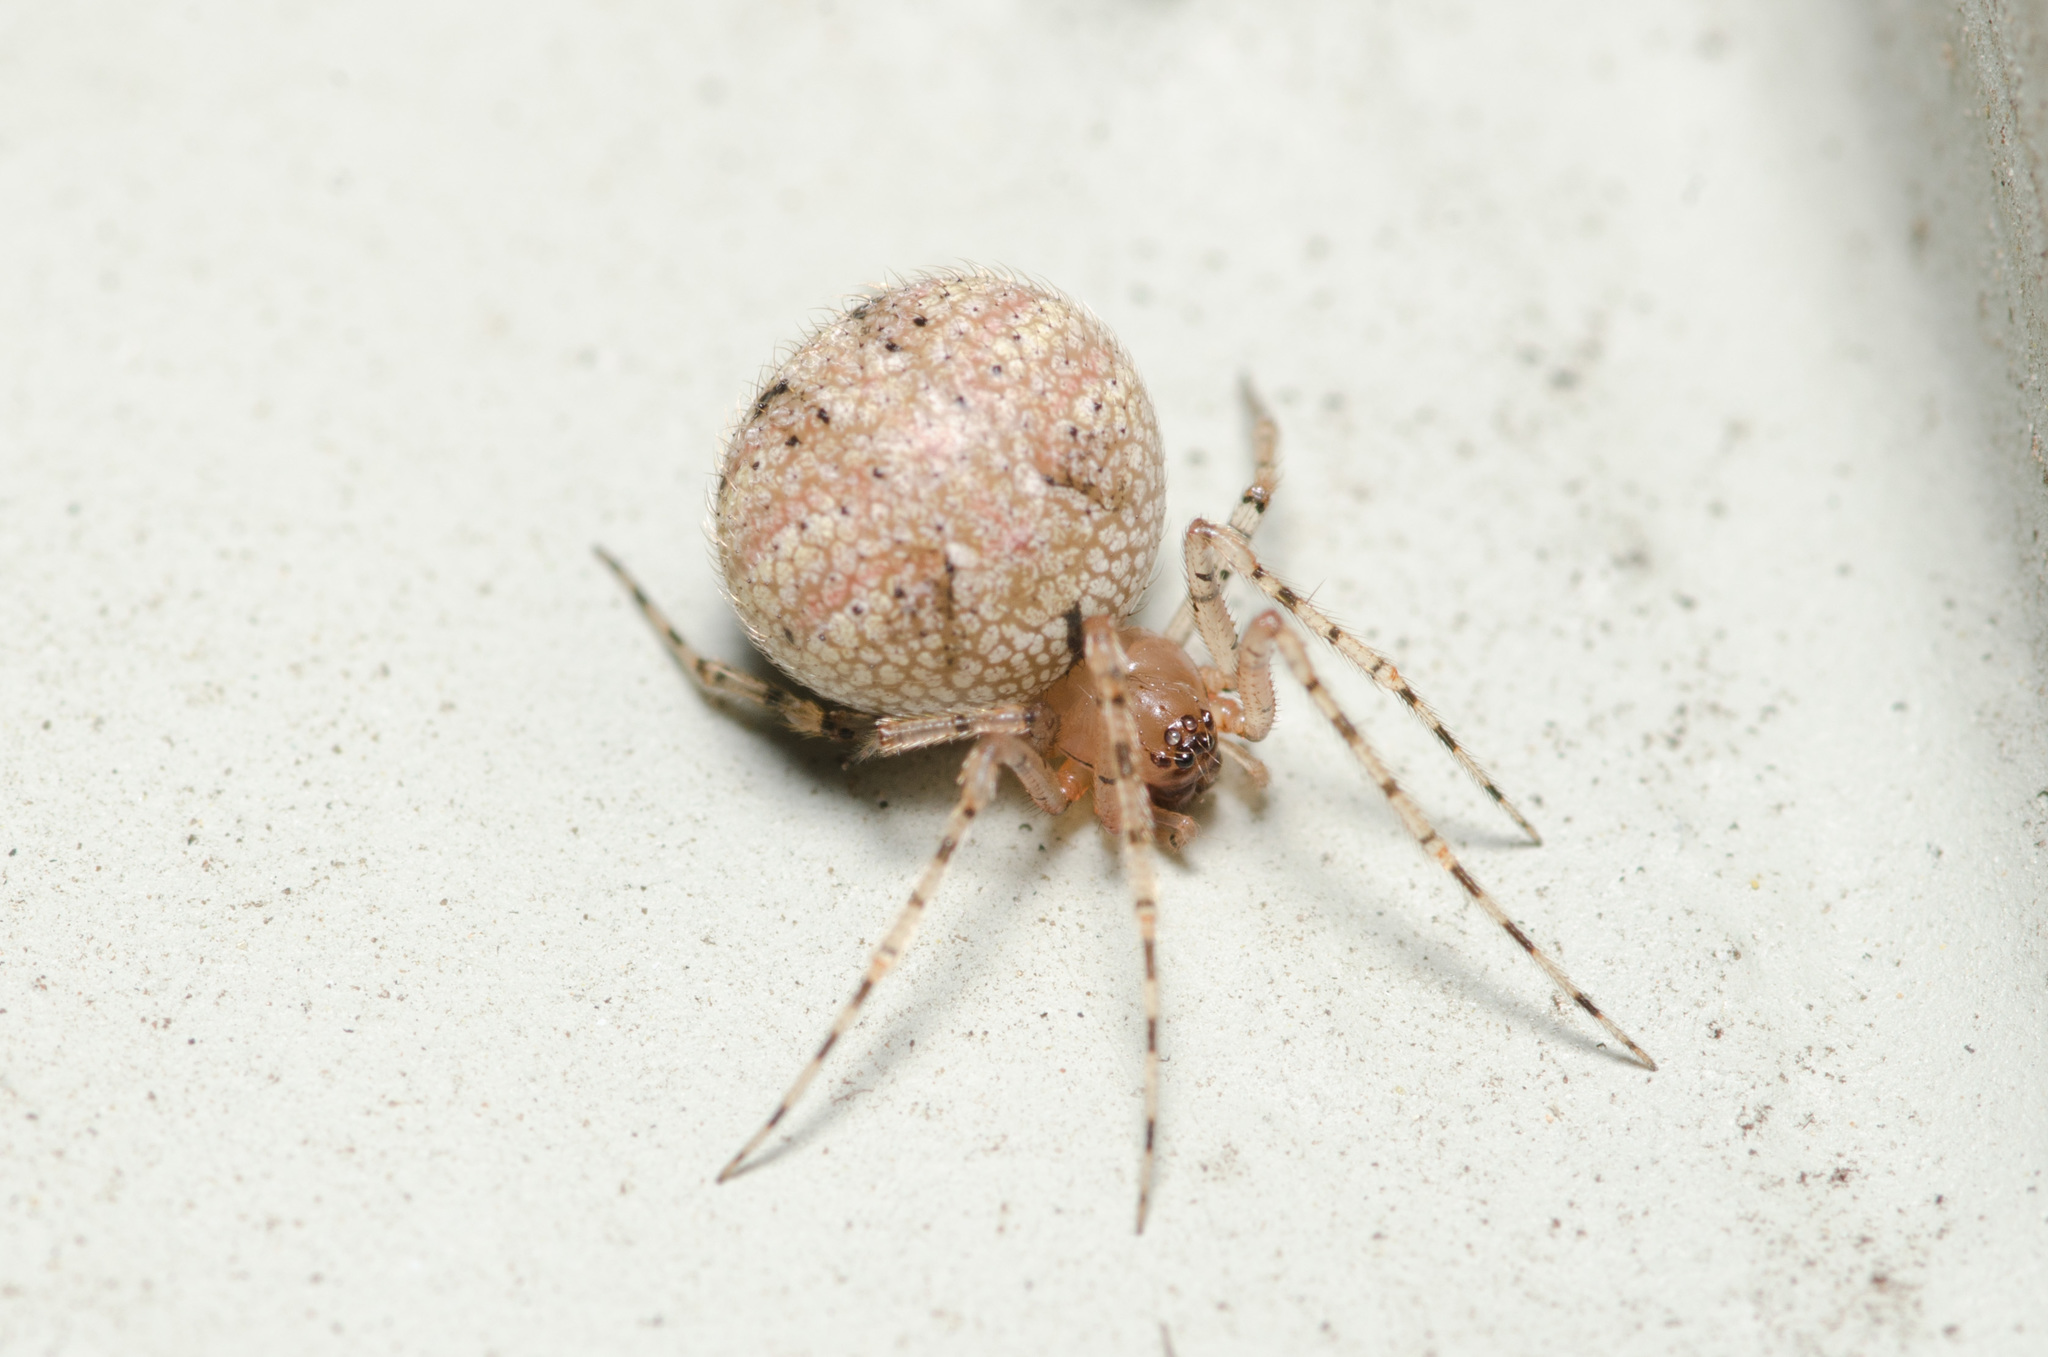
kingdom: Animalia
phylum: Arthropoda
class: Arachnida
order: Araneae
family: Theridiidae
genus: Platnickina
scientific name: Platnickina mneon
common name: Theridiid spidereater
